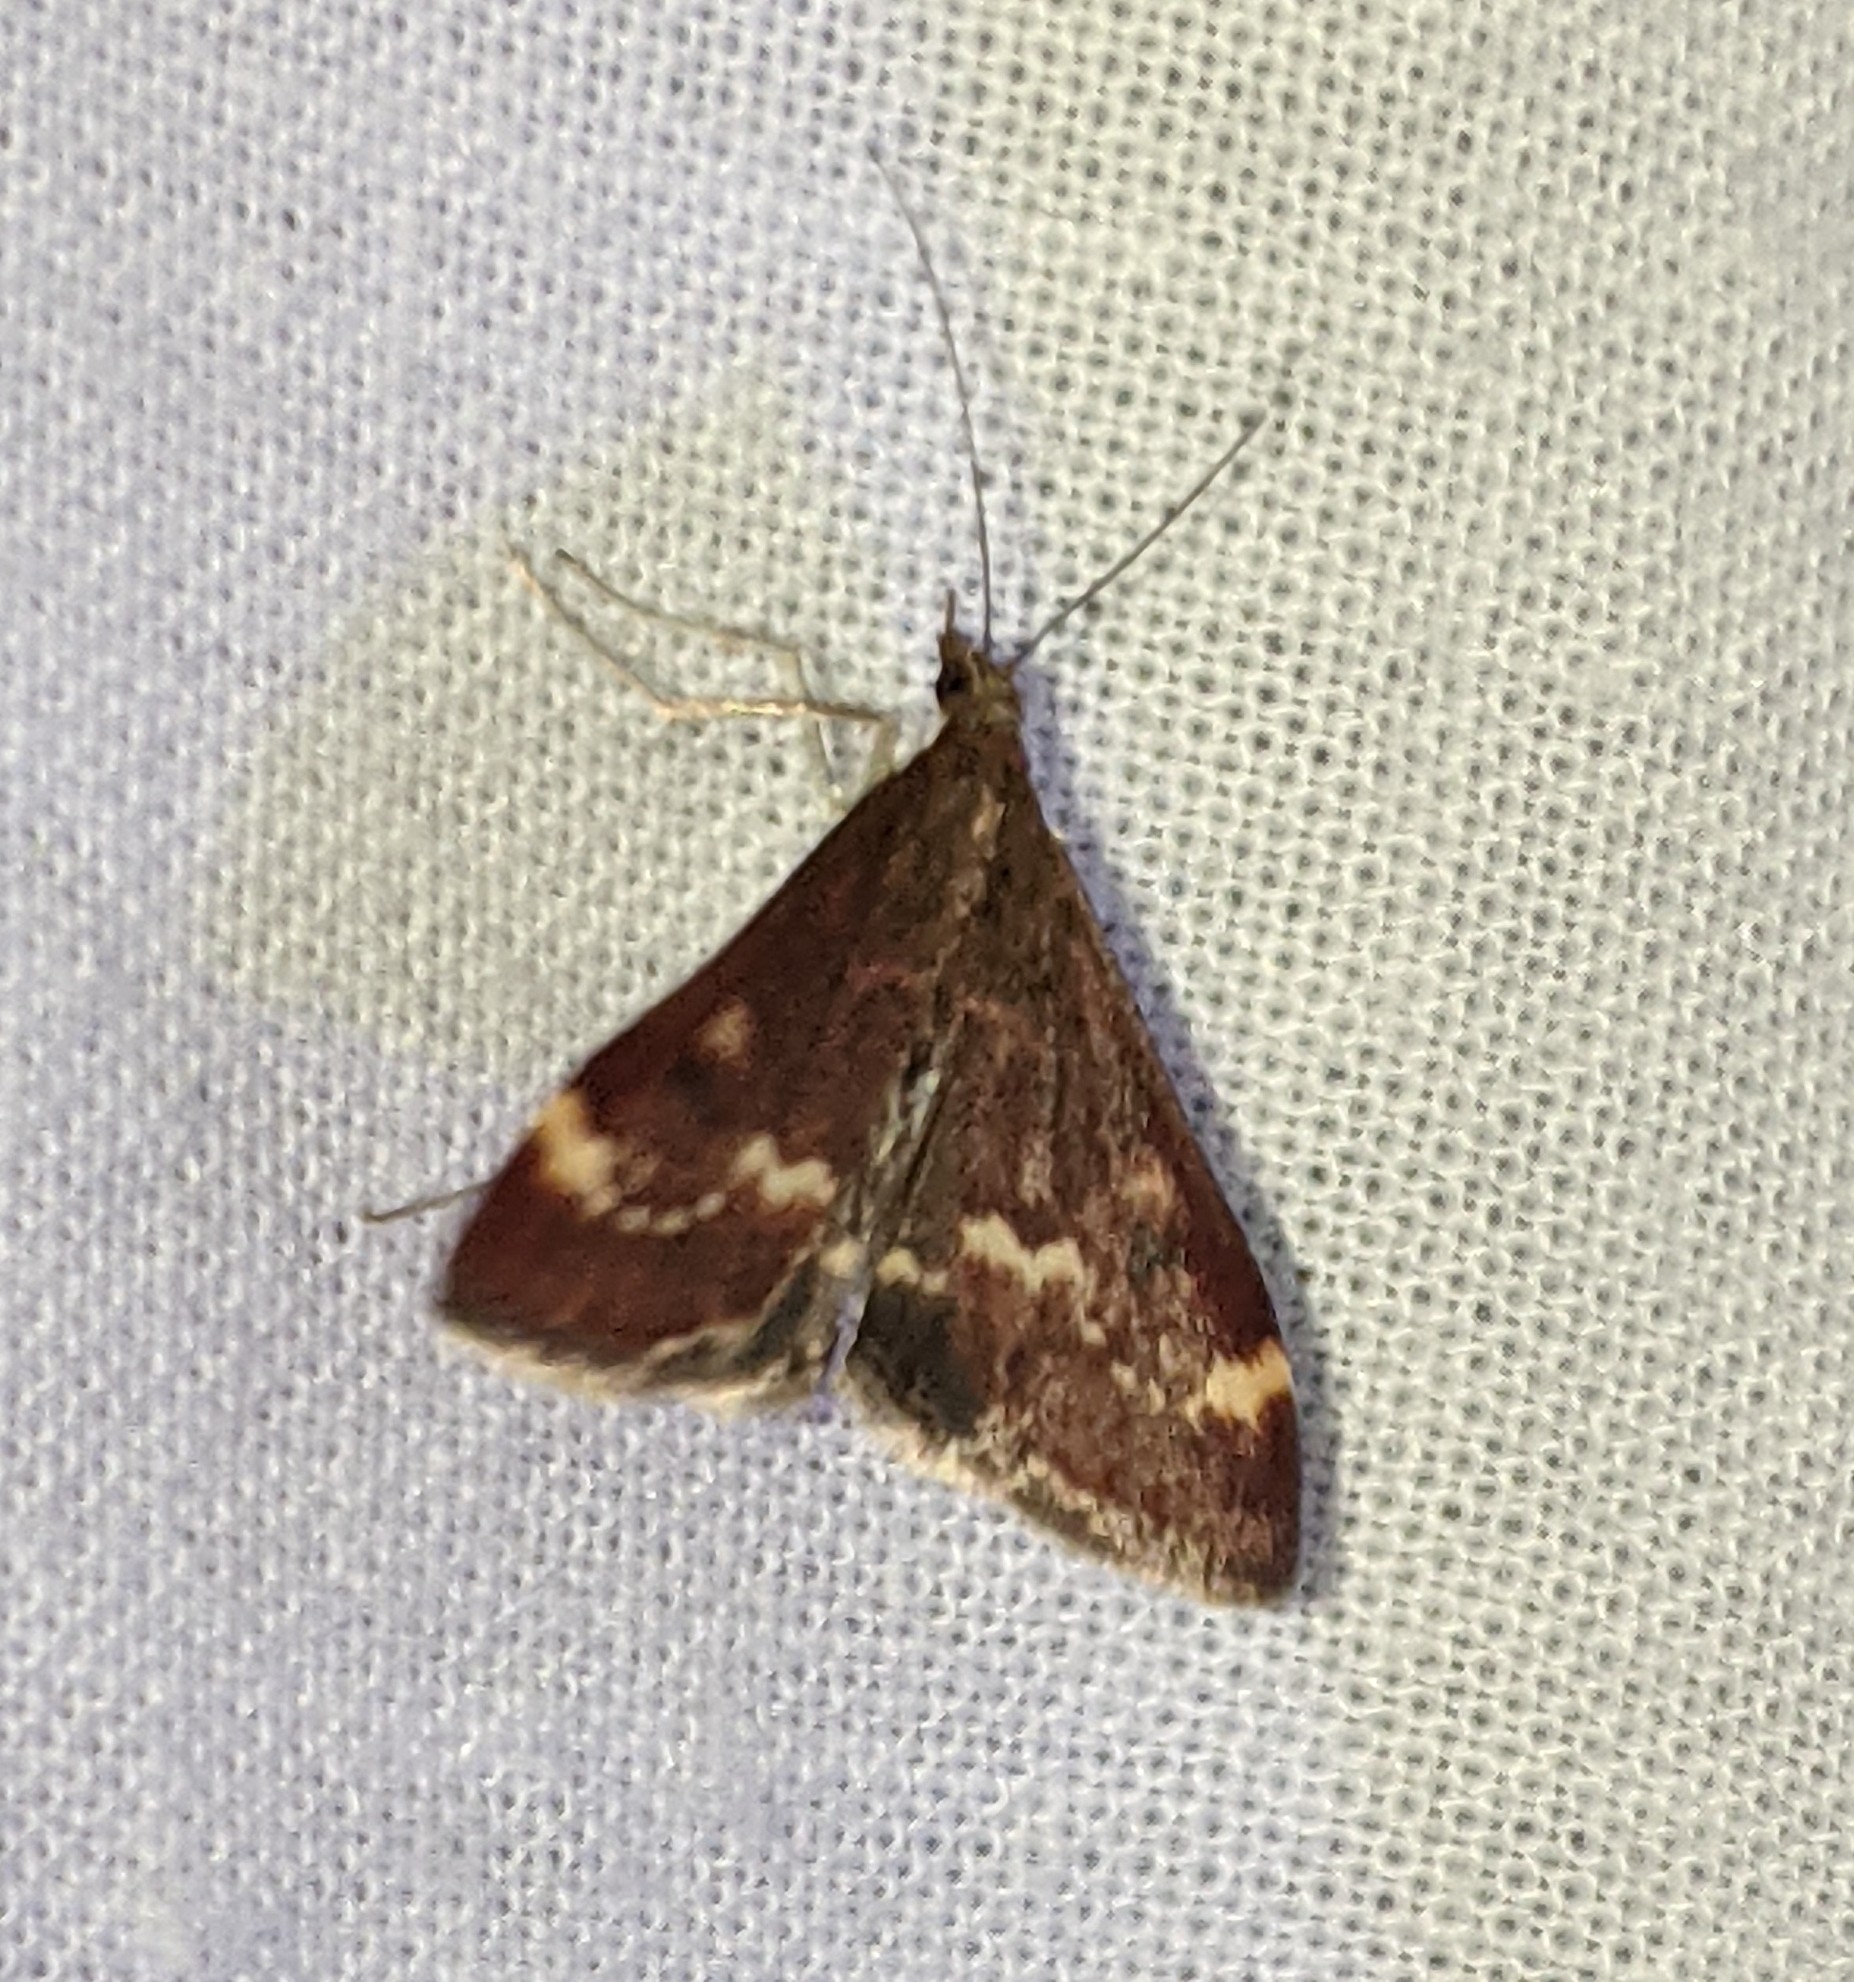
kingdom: Animalia
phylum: Arthropoda
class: Insecta
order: Lepidoptera
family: Crambidae
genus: Pyrausta
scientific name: Pyrausta nicalis
